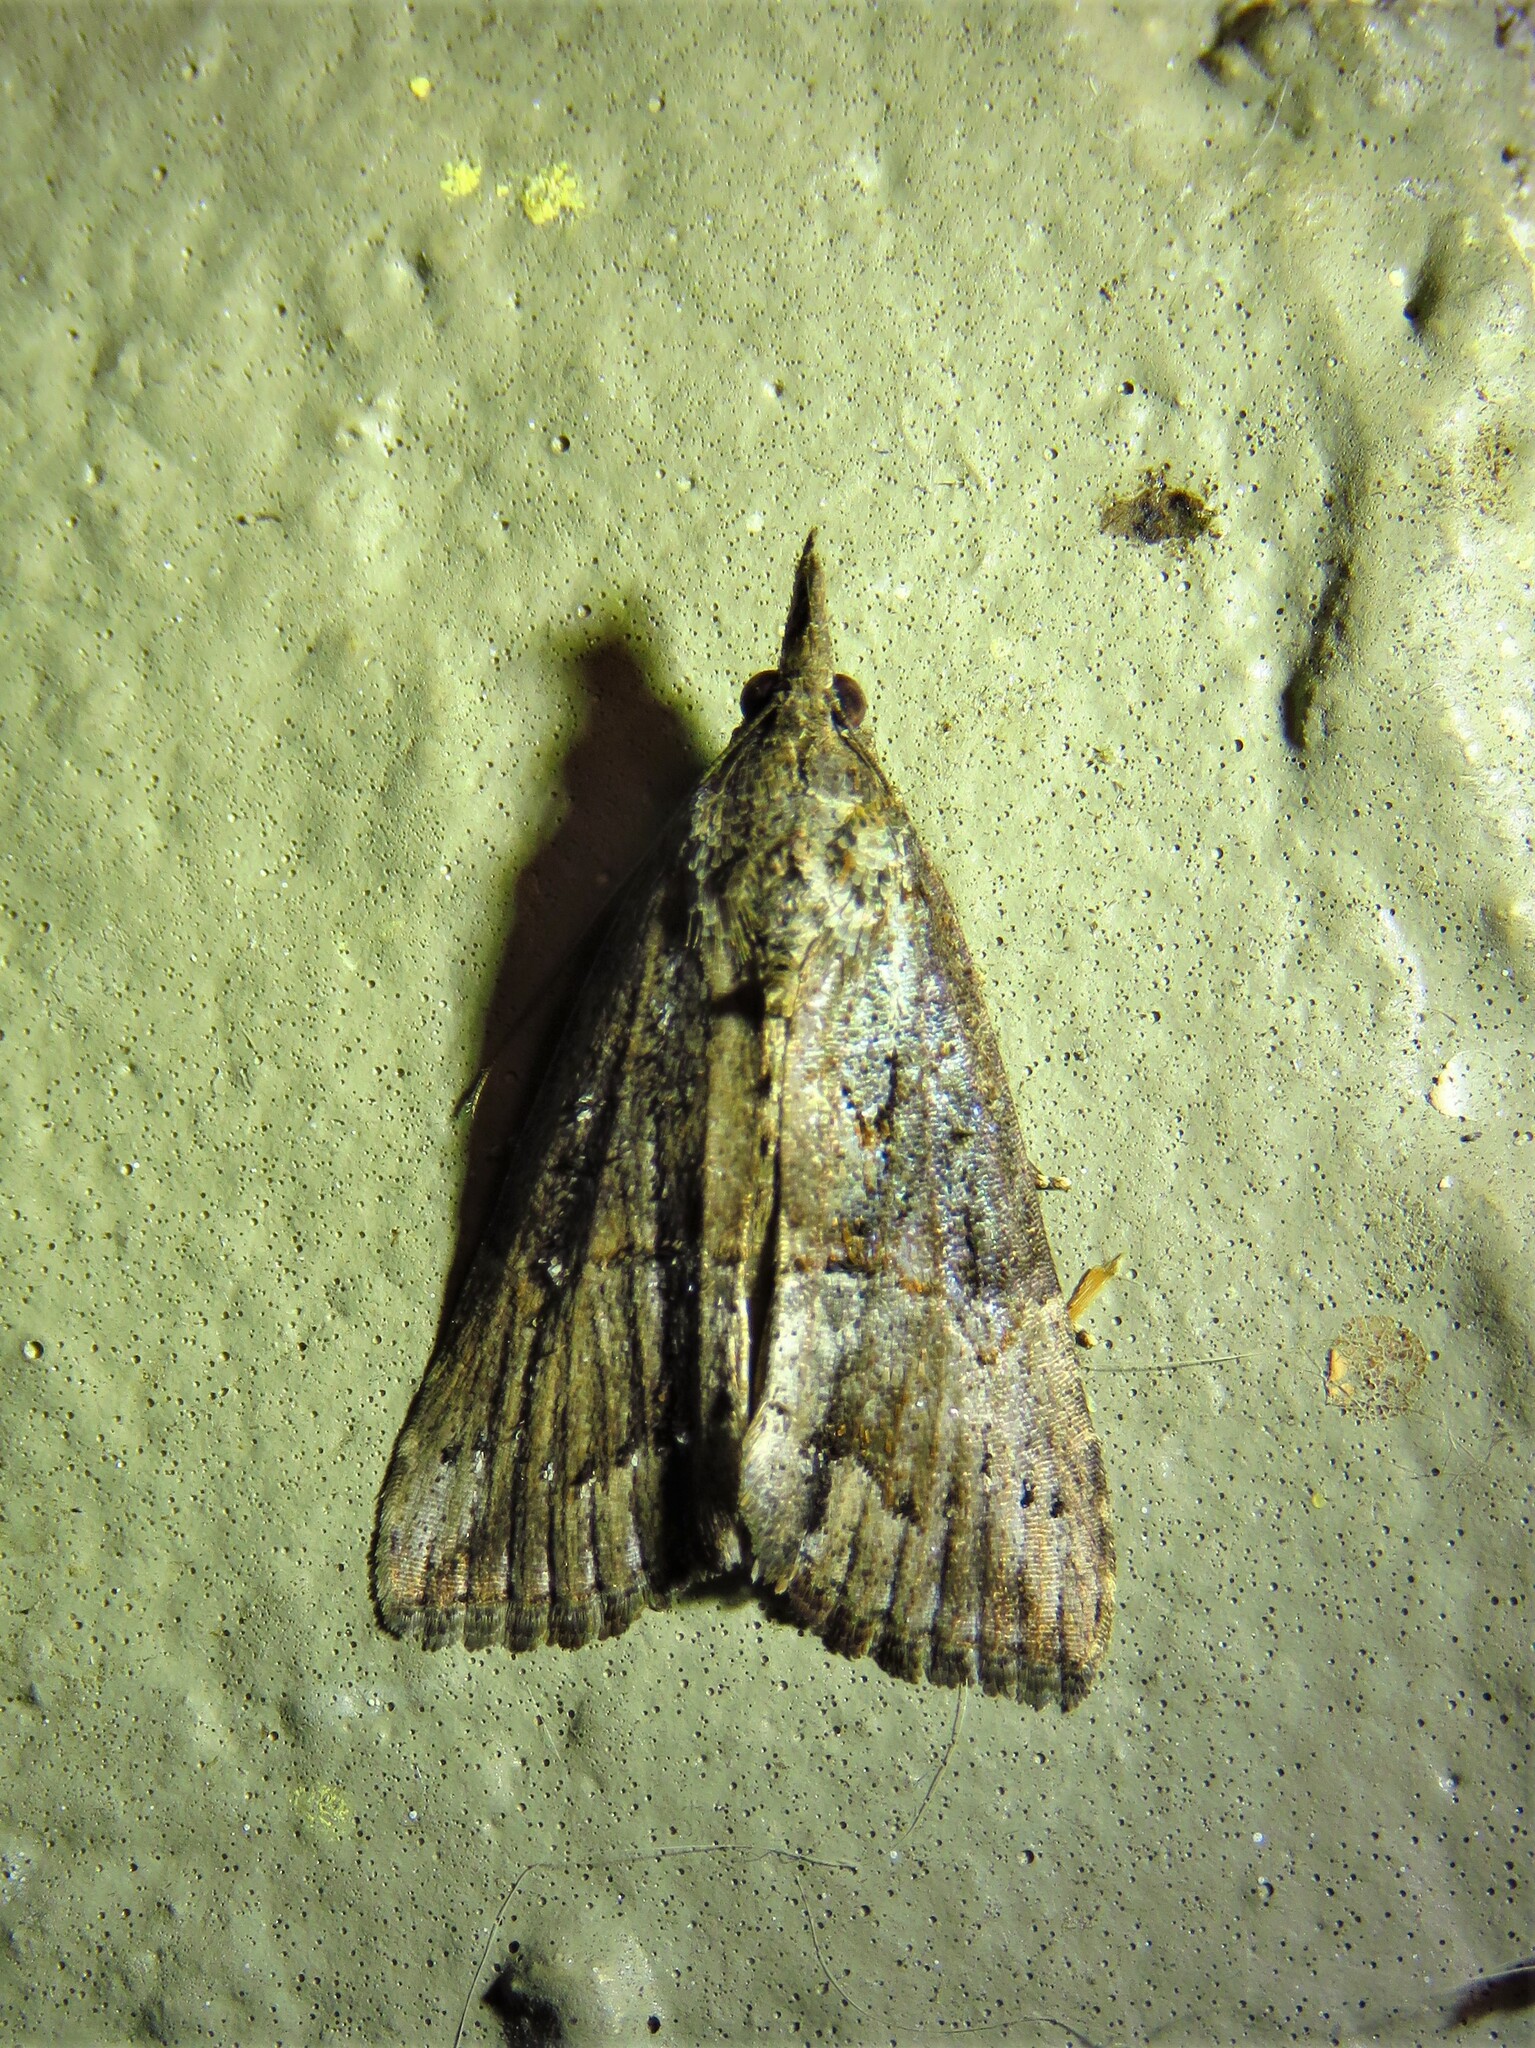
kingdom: Animalia
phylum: Arthropoda
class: Insecta
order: Lepidoptera
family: Erebidae
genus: Hypena
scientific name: Hypena scabra
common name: Green cloverworm
